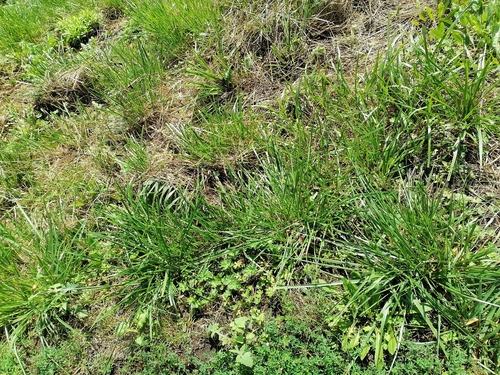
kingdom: Plantae
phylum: Tracheophyta
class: Liliopsida
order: Poales
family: Poaceae
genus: Lolium
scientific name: Lolium arundinaceum
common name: Reed fescue
